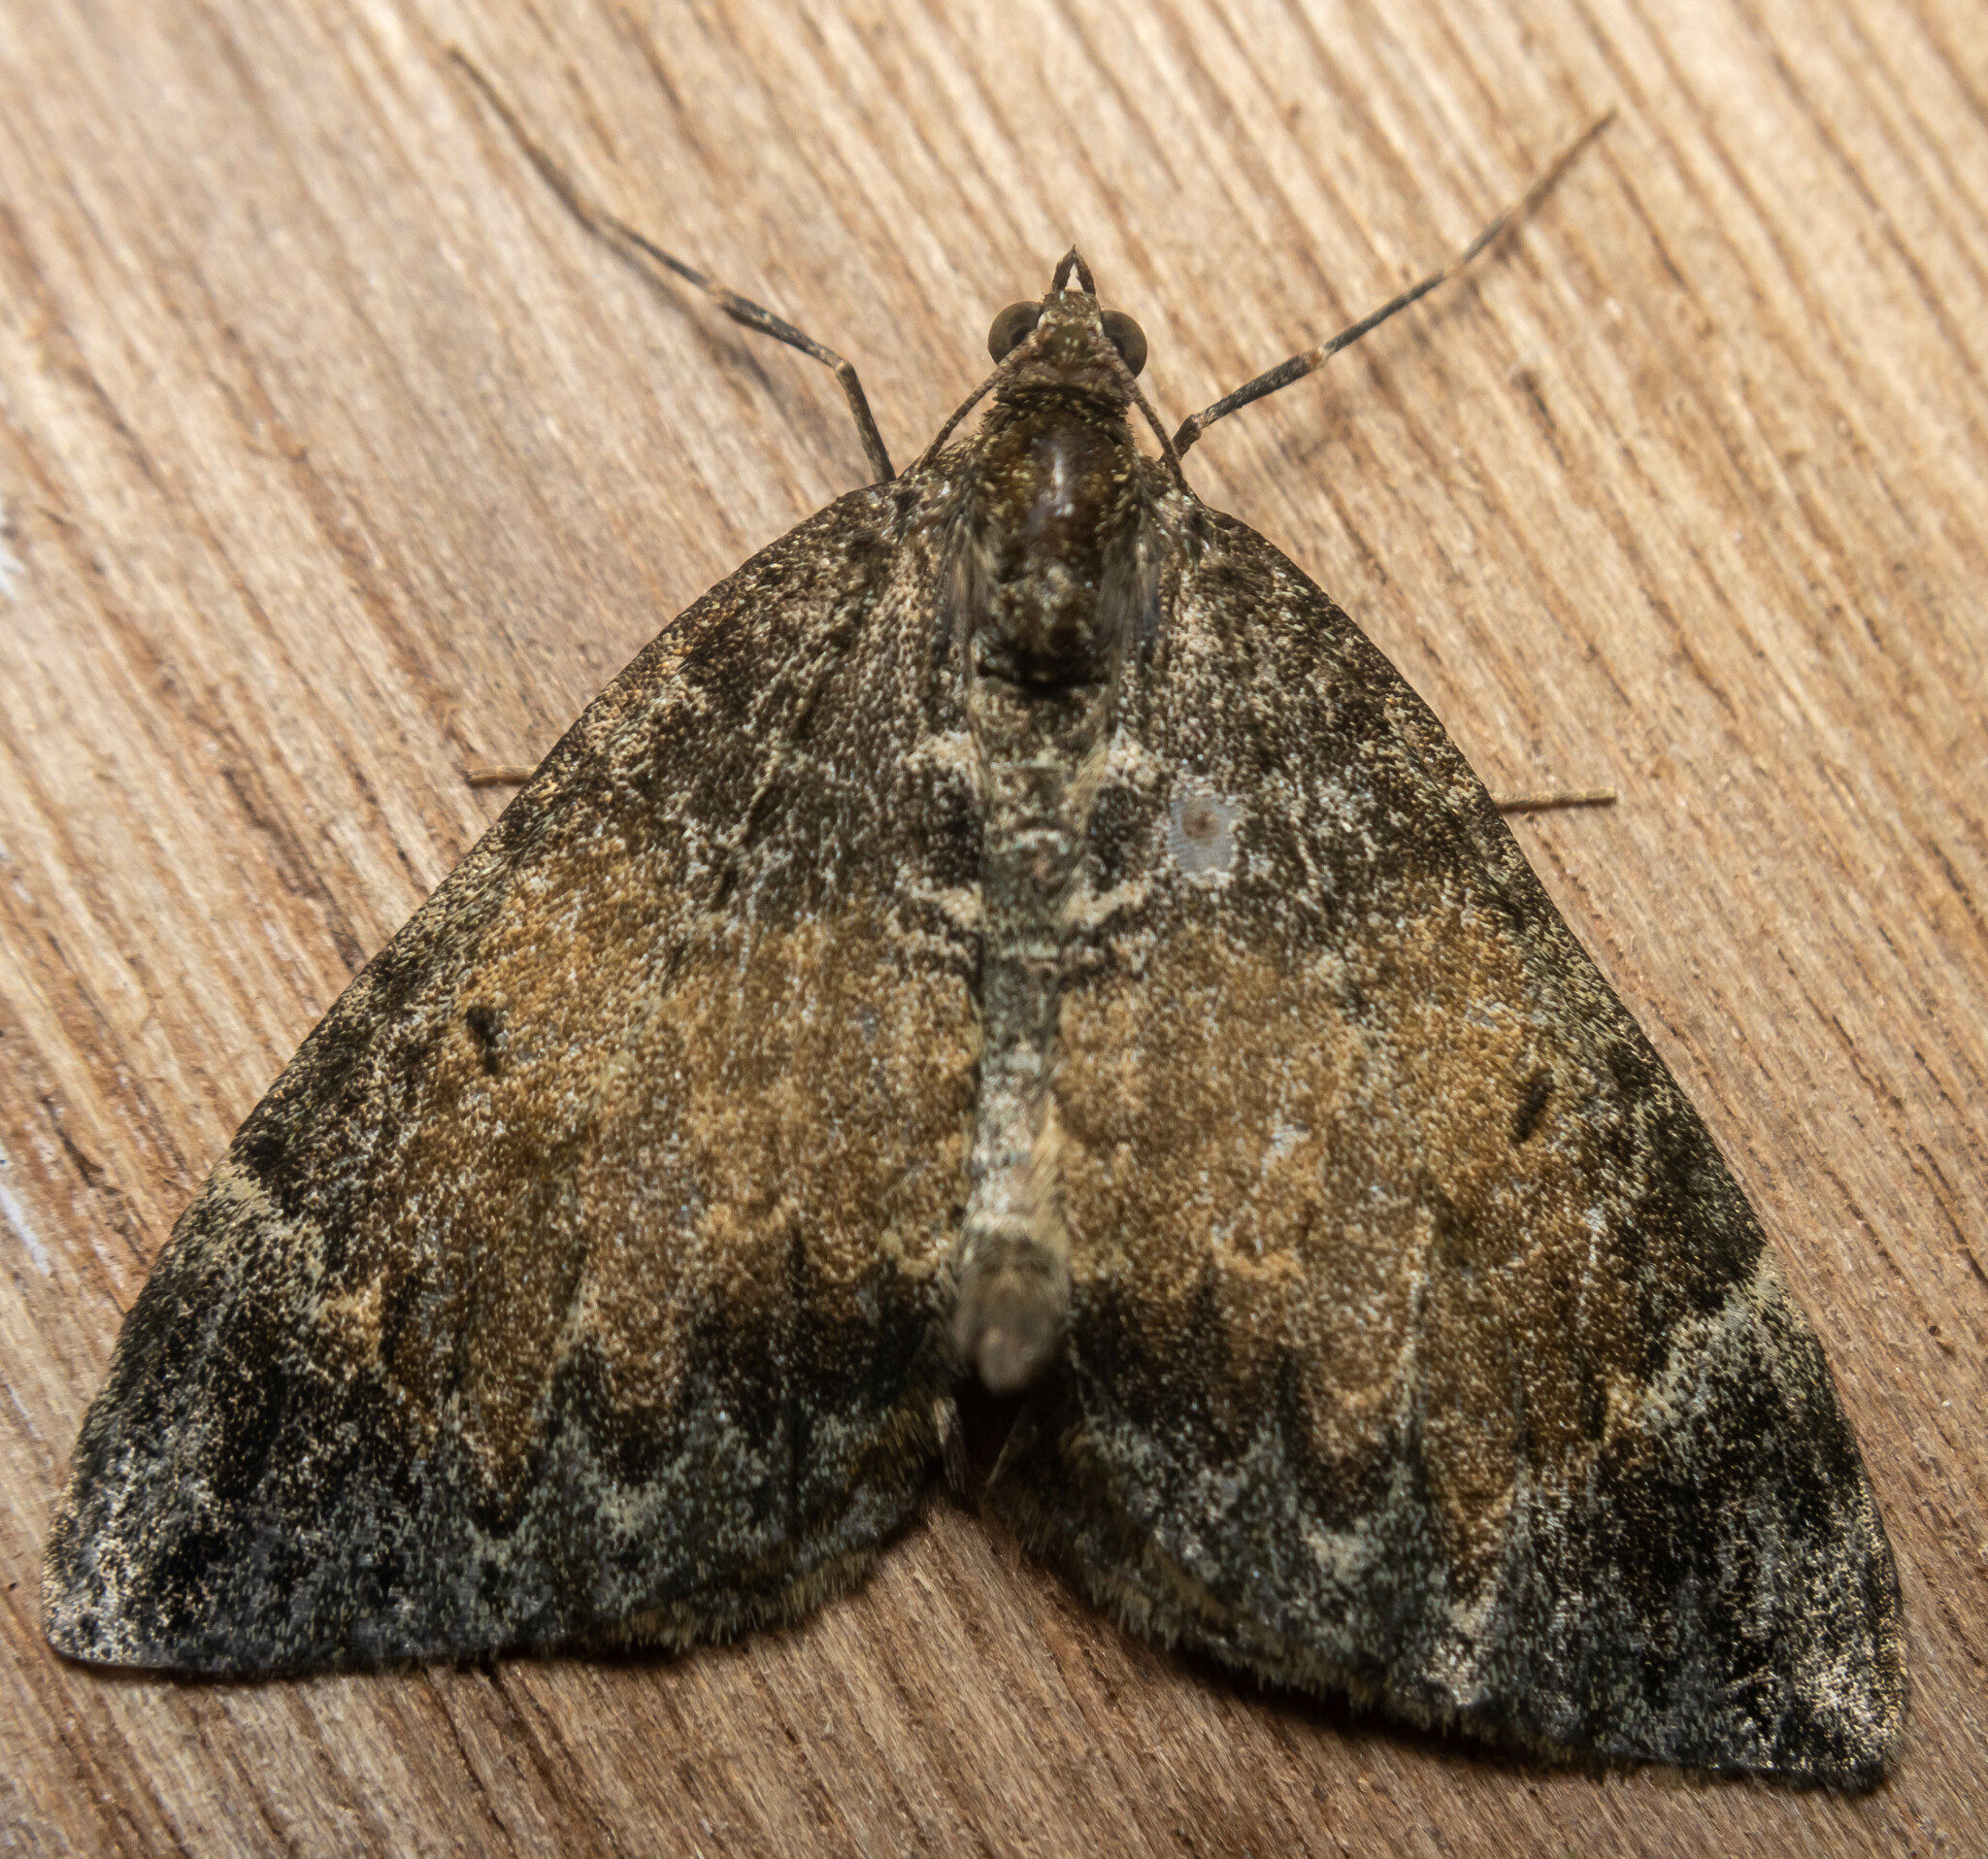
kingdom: Animalia
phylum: Arthropoda
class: Insecta
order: Lepidoptera
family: Geometridae
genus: Dysstroma
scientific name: Dysstroma truncata
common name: Common marbled carpet
